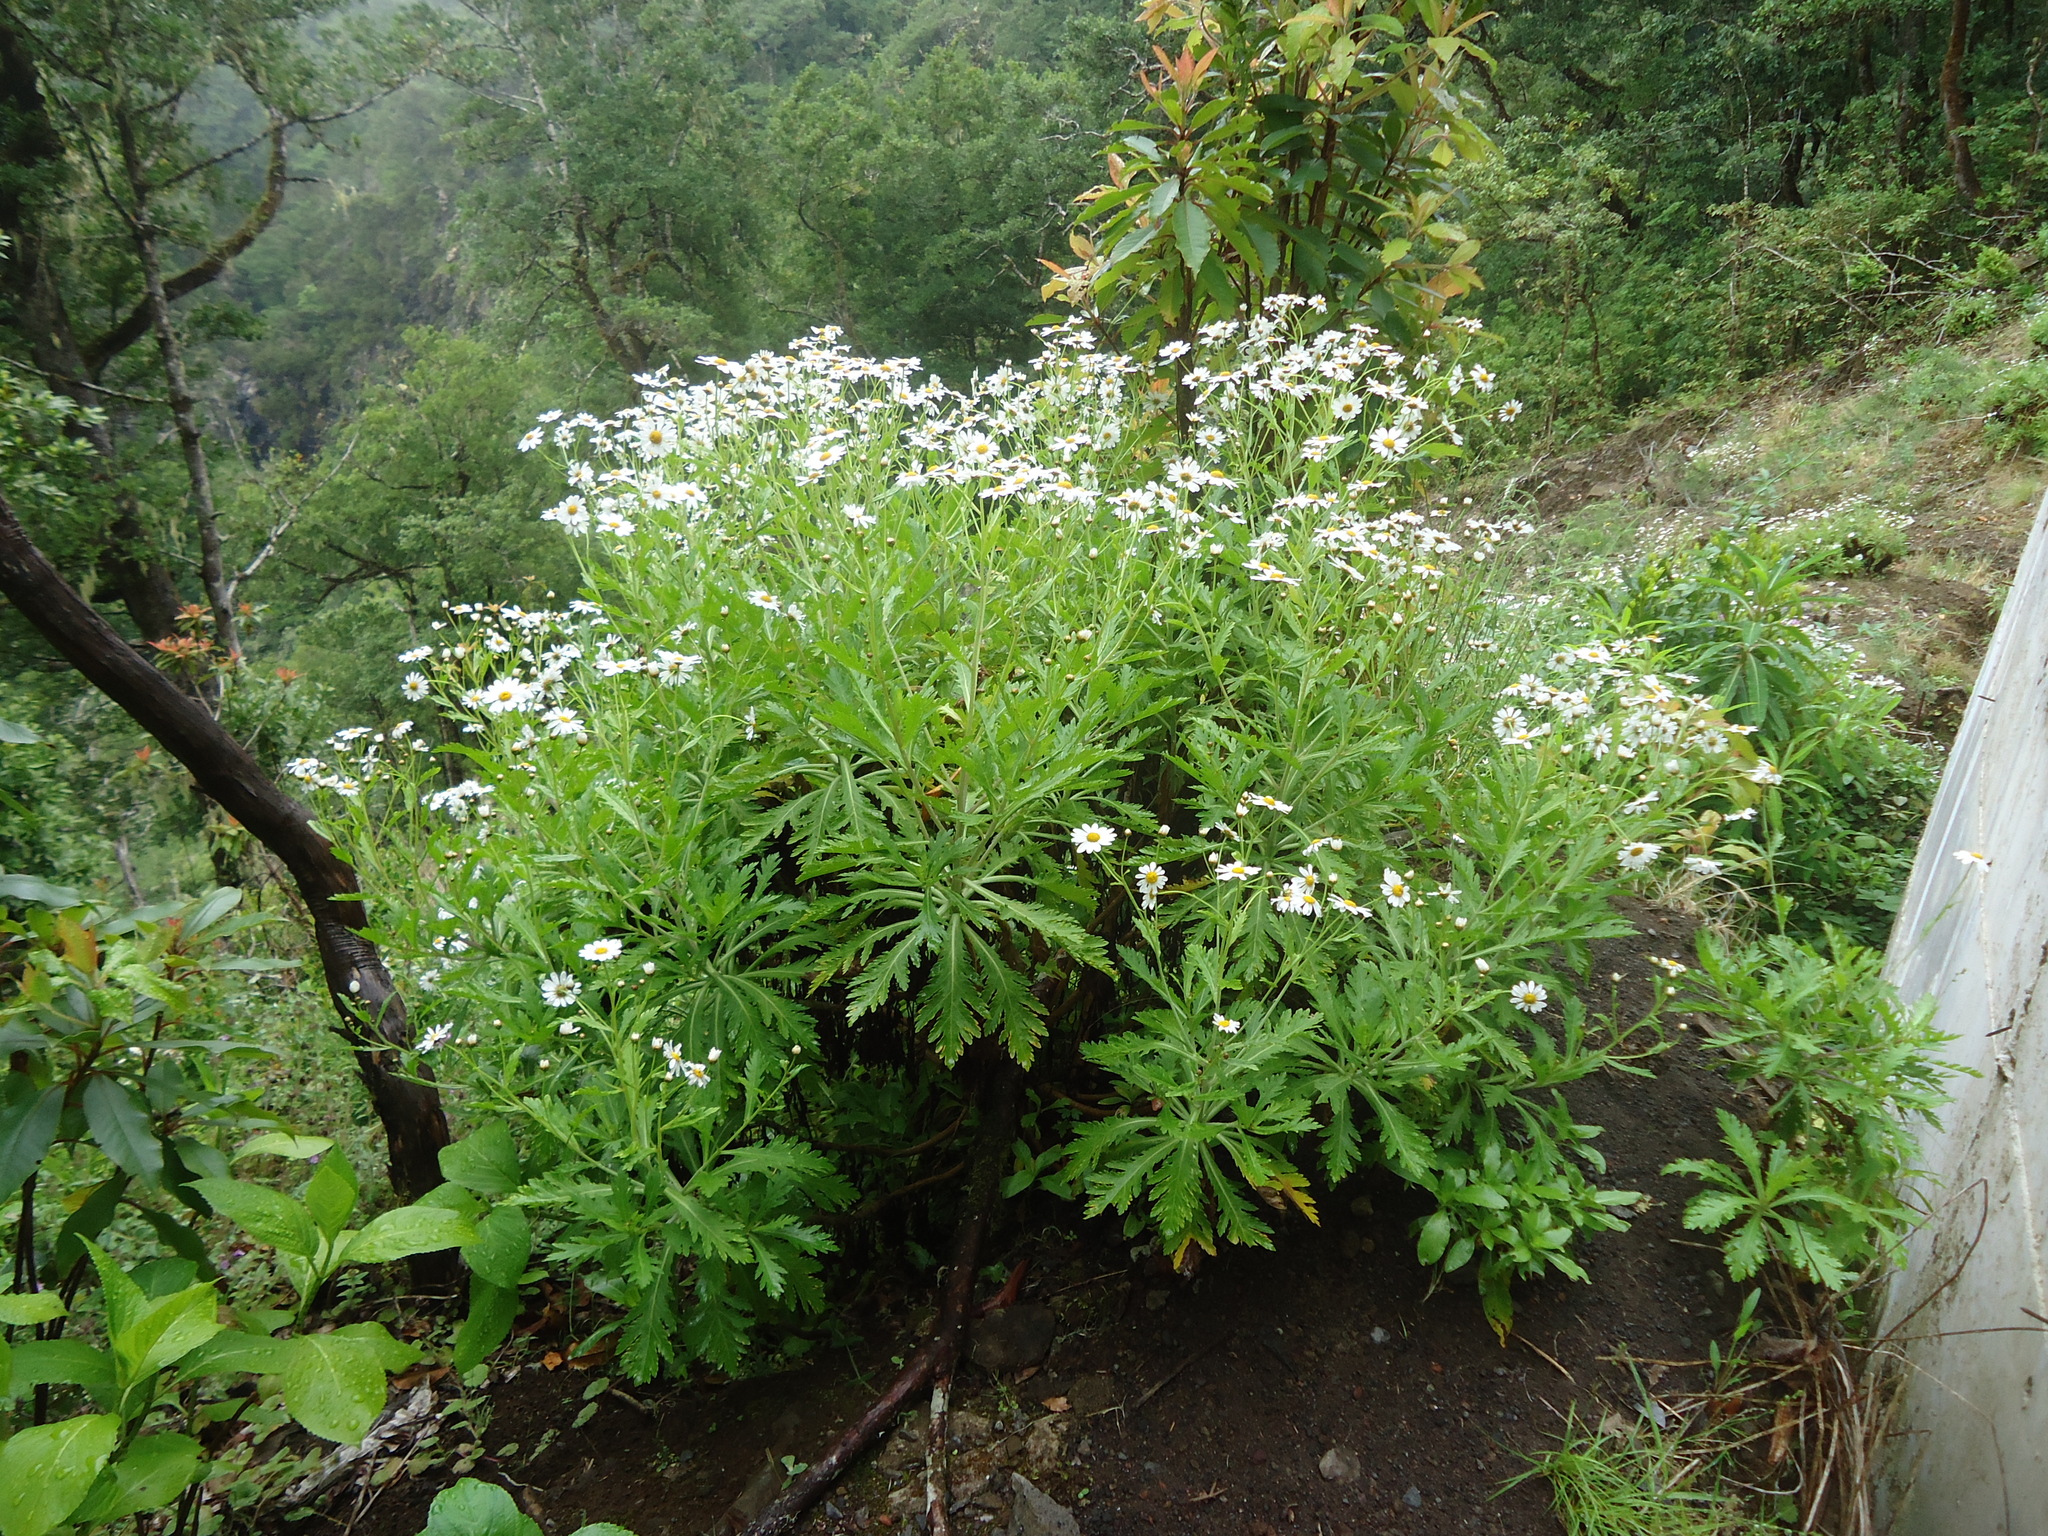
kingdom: Plantae
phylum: Tracheophyta
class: Magnoliopsida
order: Asterales
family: Asteraceae
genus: Argyranthemum
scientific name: Argyranthemum pinnatifidum
